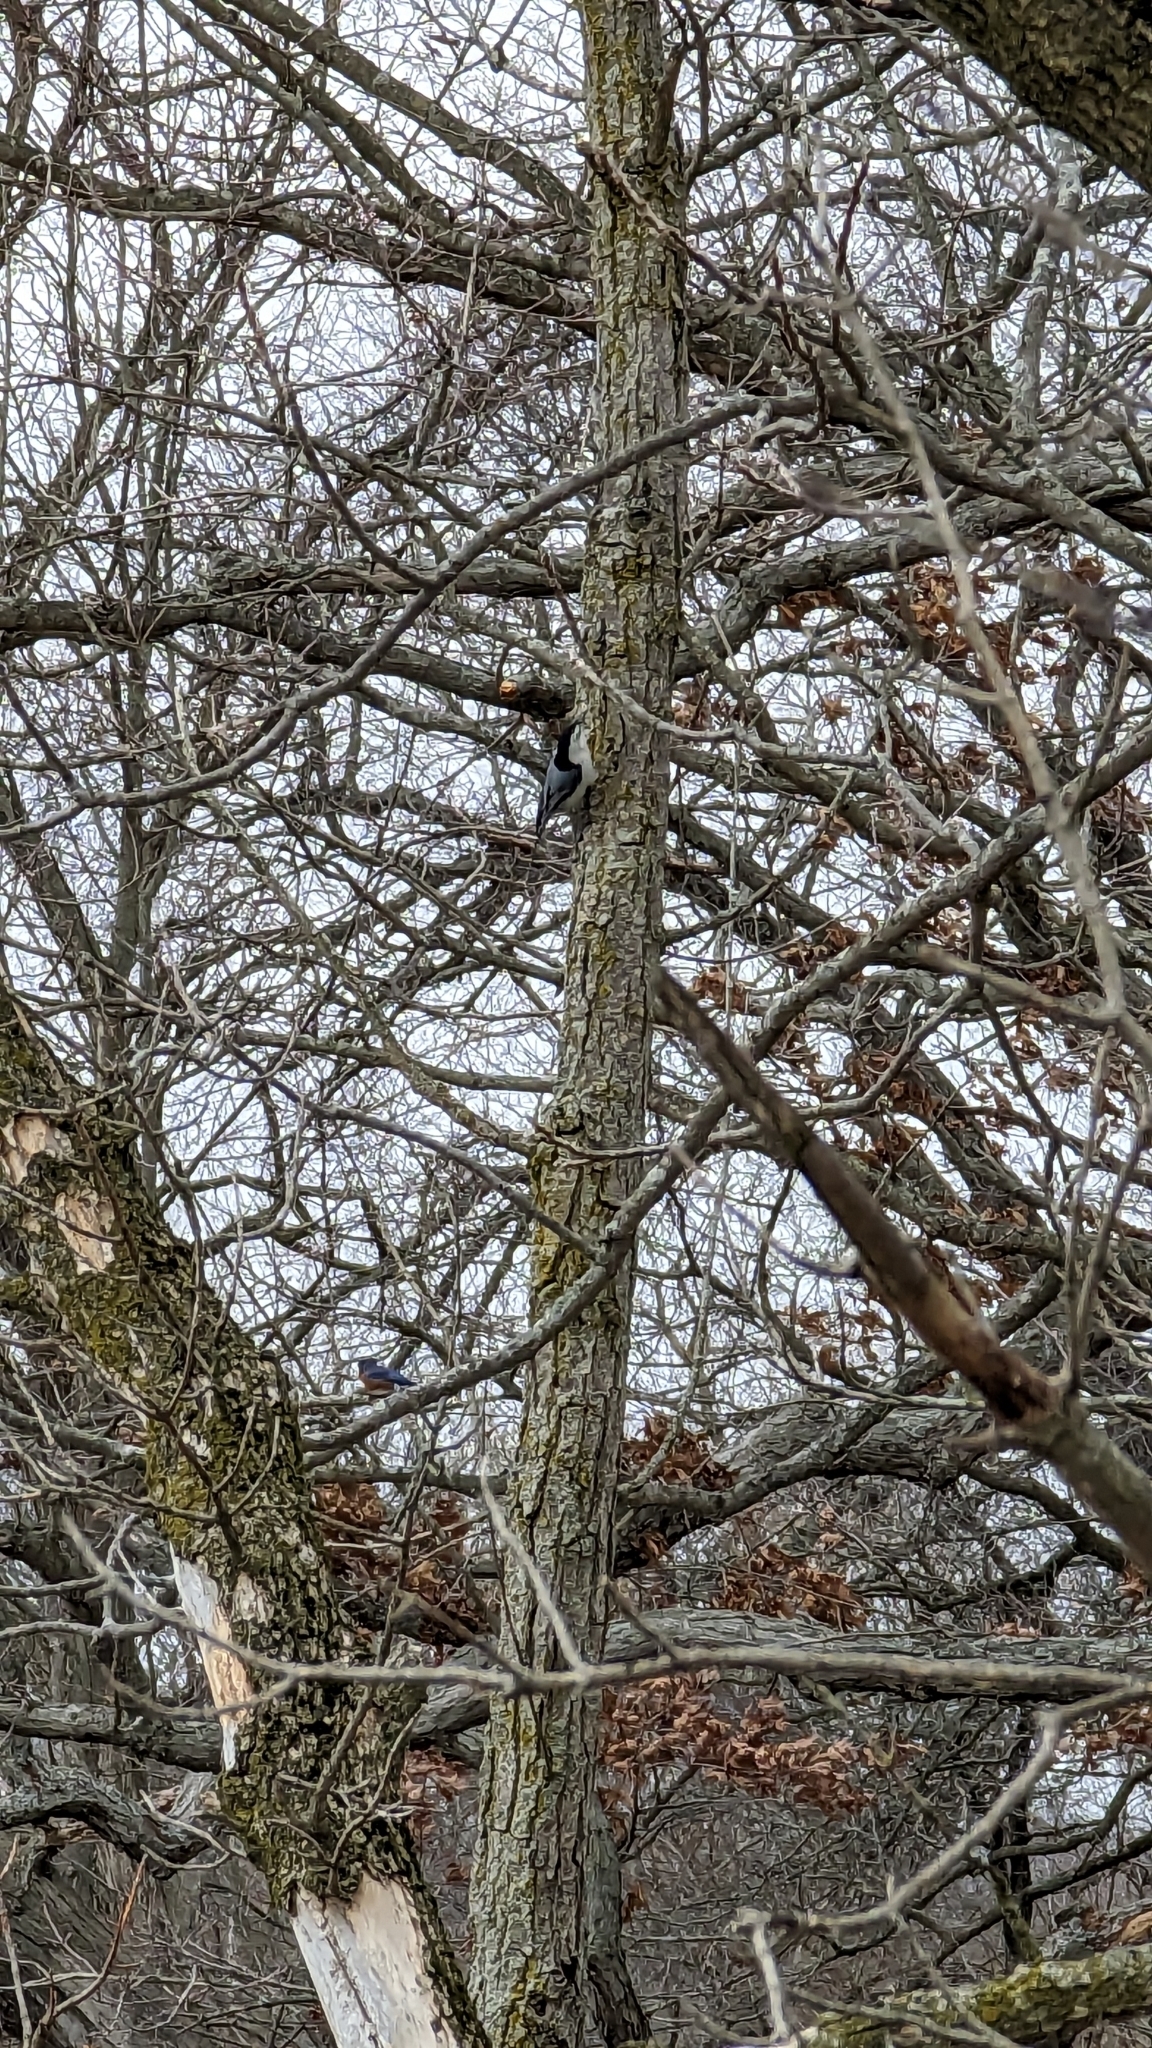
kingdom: Animalia
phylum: Chordata
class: Aves
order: Passeriformes
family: Sittidae
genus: Sitta
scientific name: Sitta carolinensis
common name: White-breasted nuthatch
